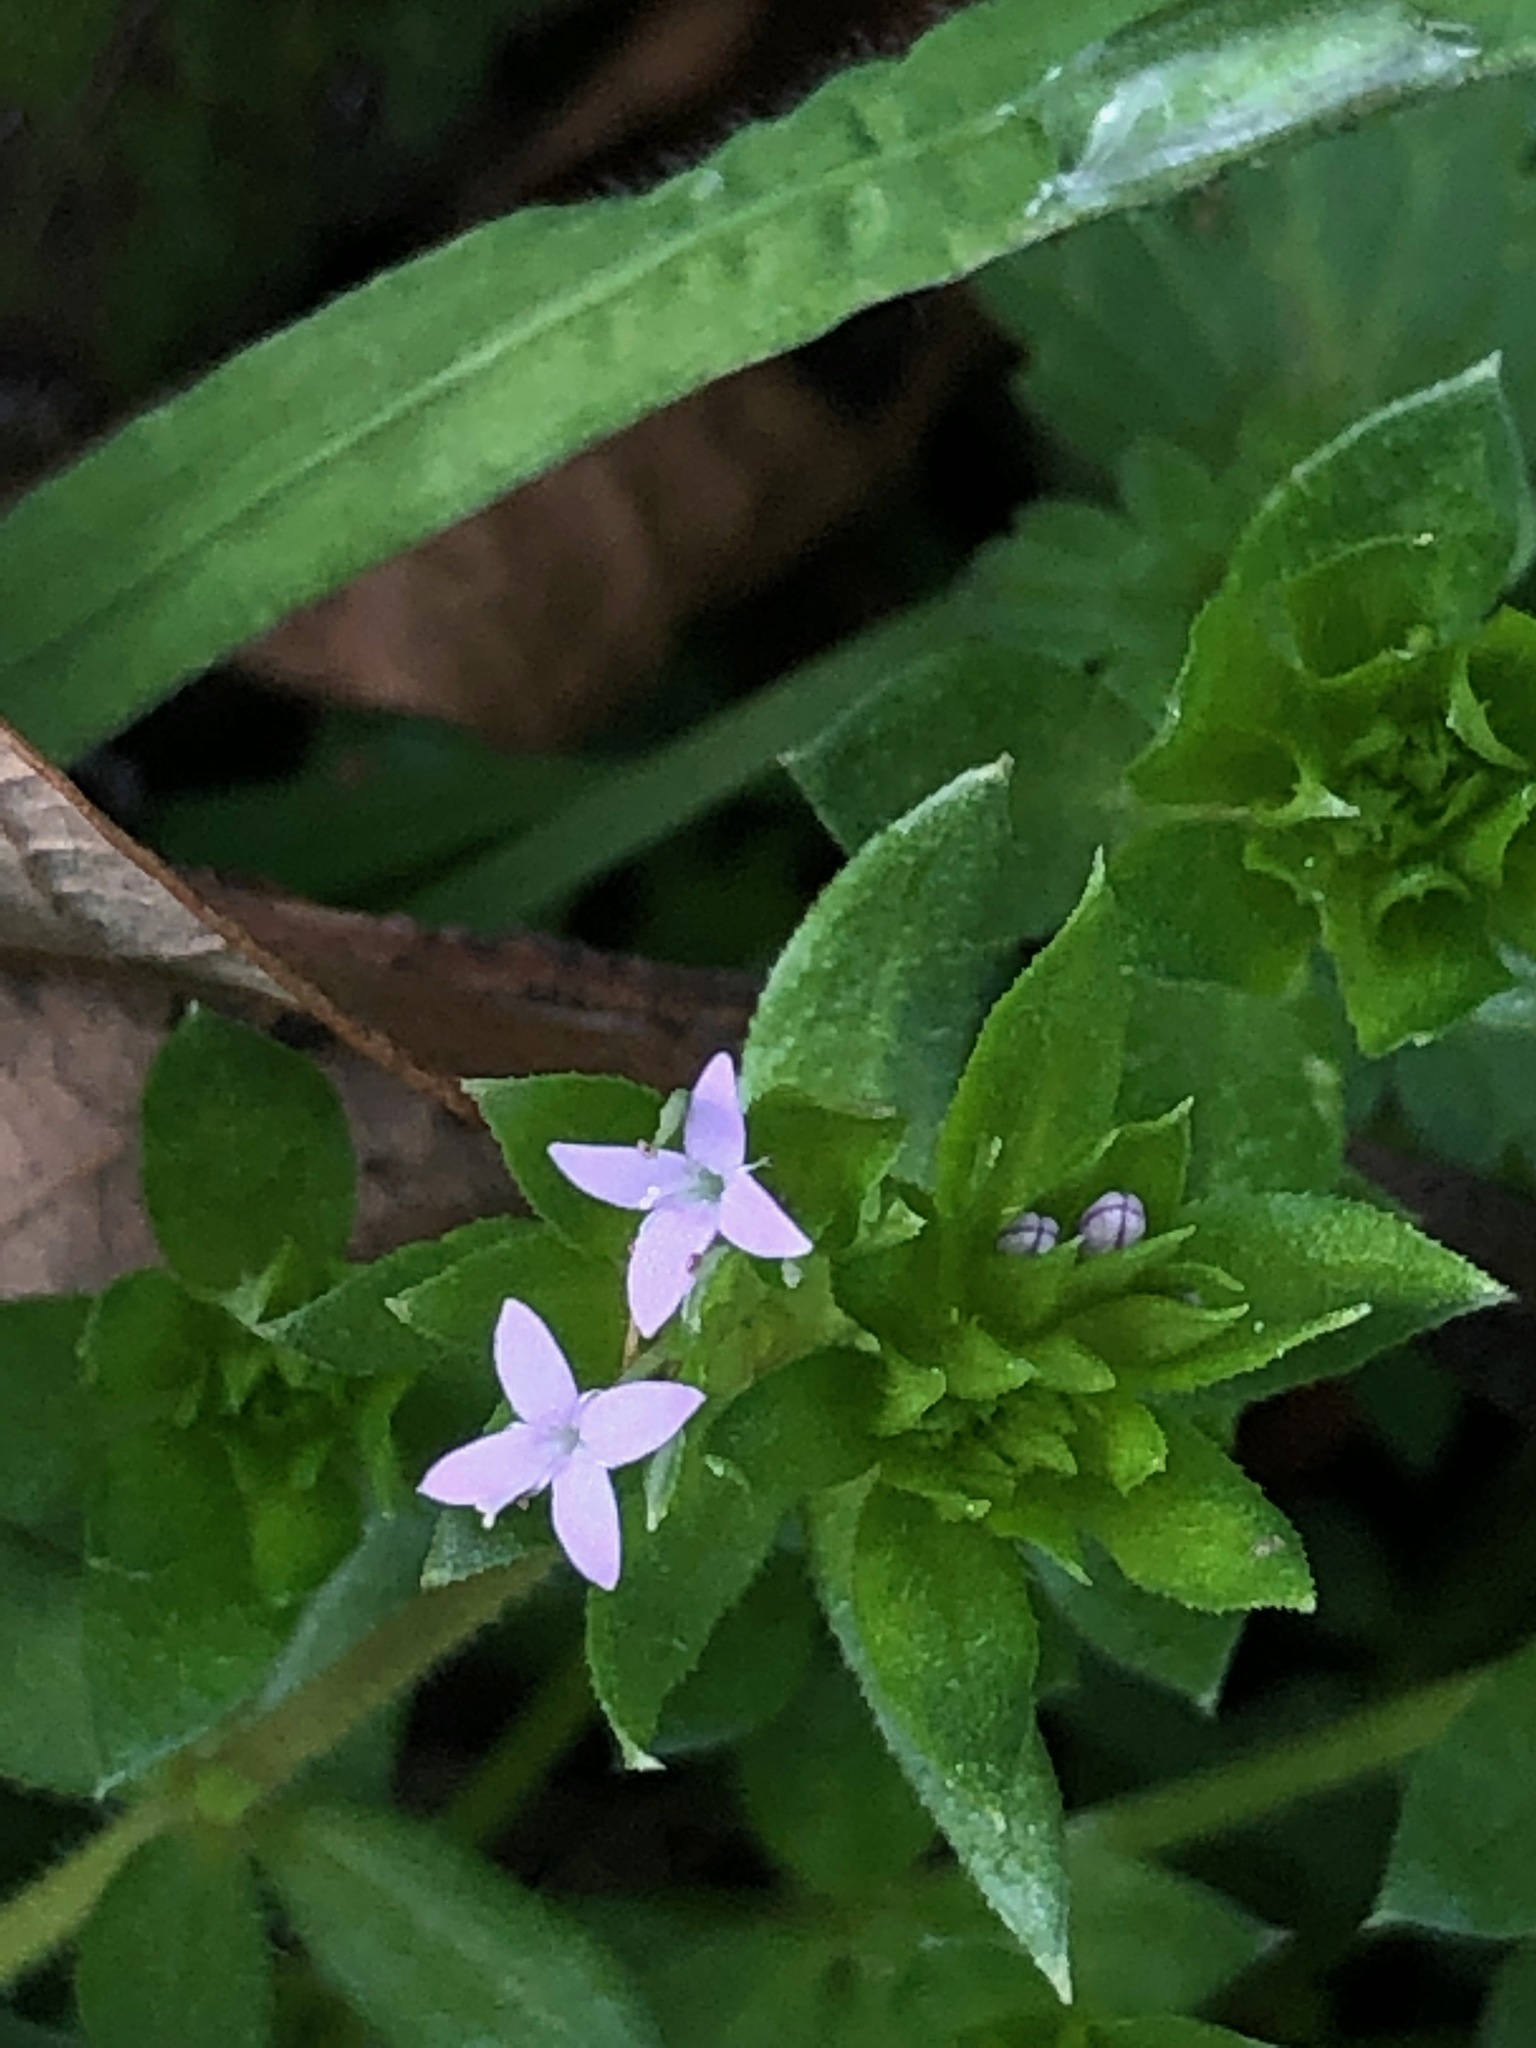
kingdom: Plantae
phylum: Tracheophyta
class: Magnoliopsida
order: Gentianales
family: Rubiaceae
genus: Sherardia
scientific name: Sherardia arvensis
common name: Field madder
